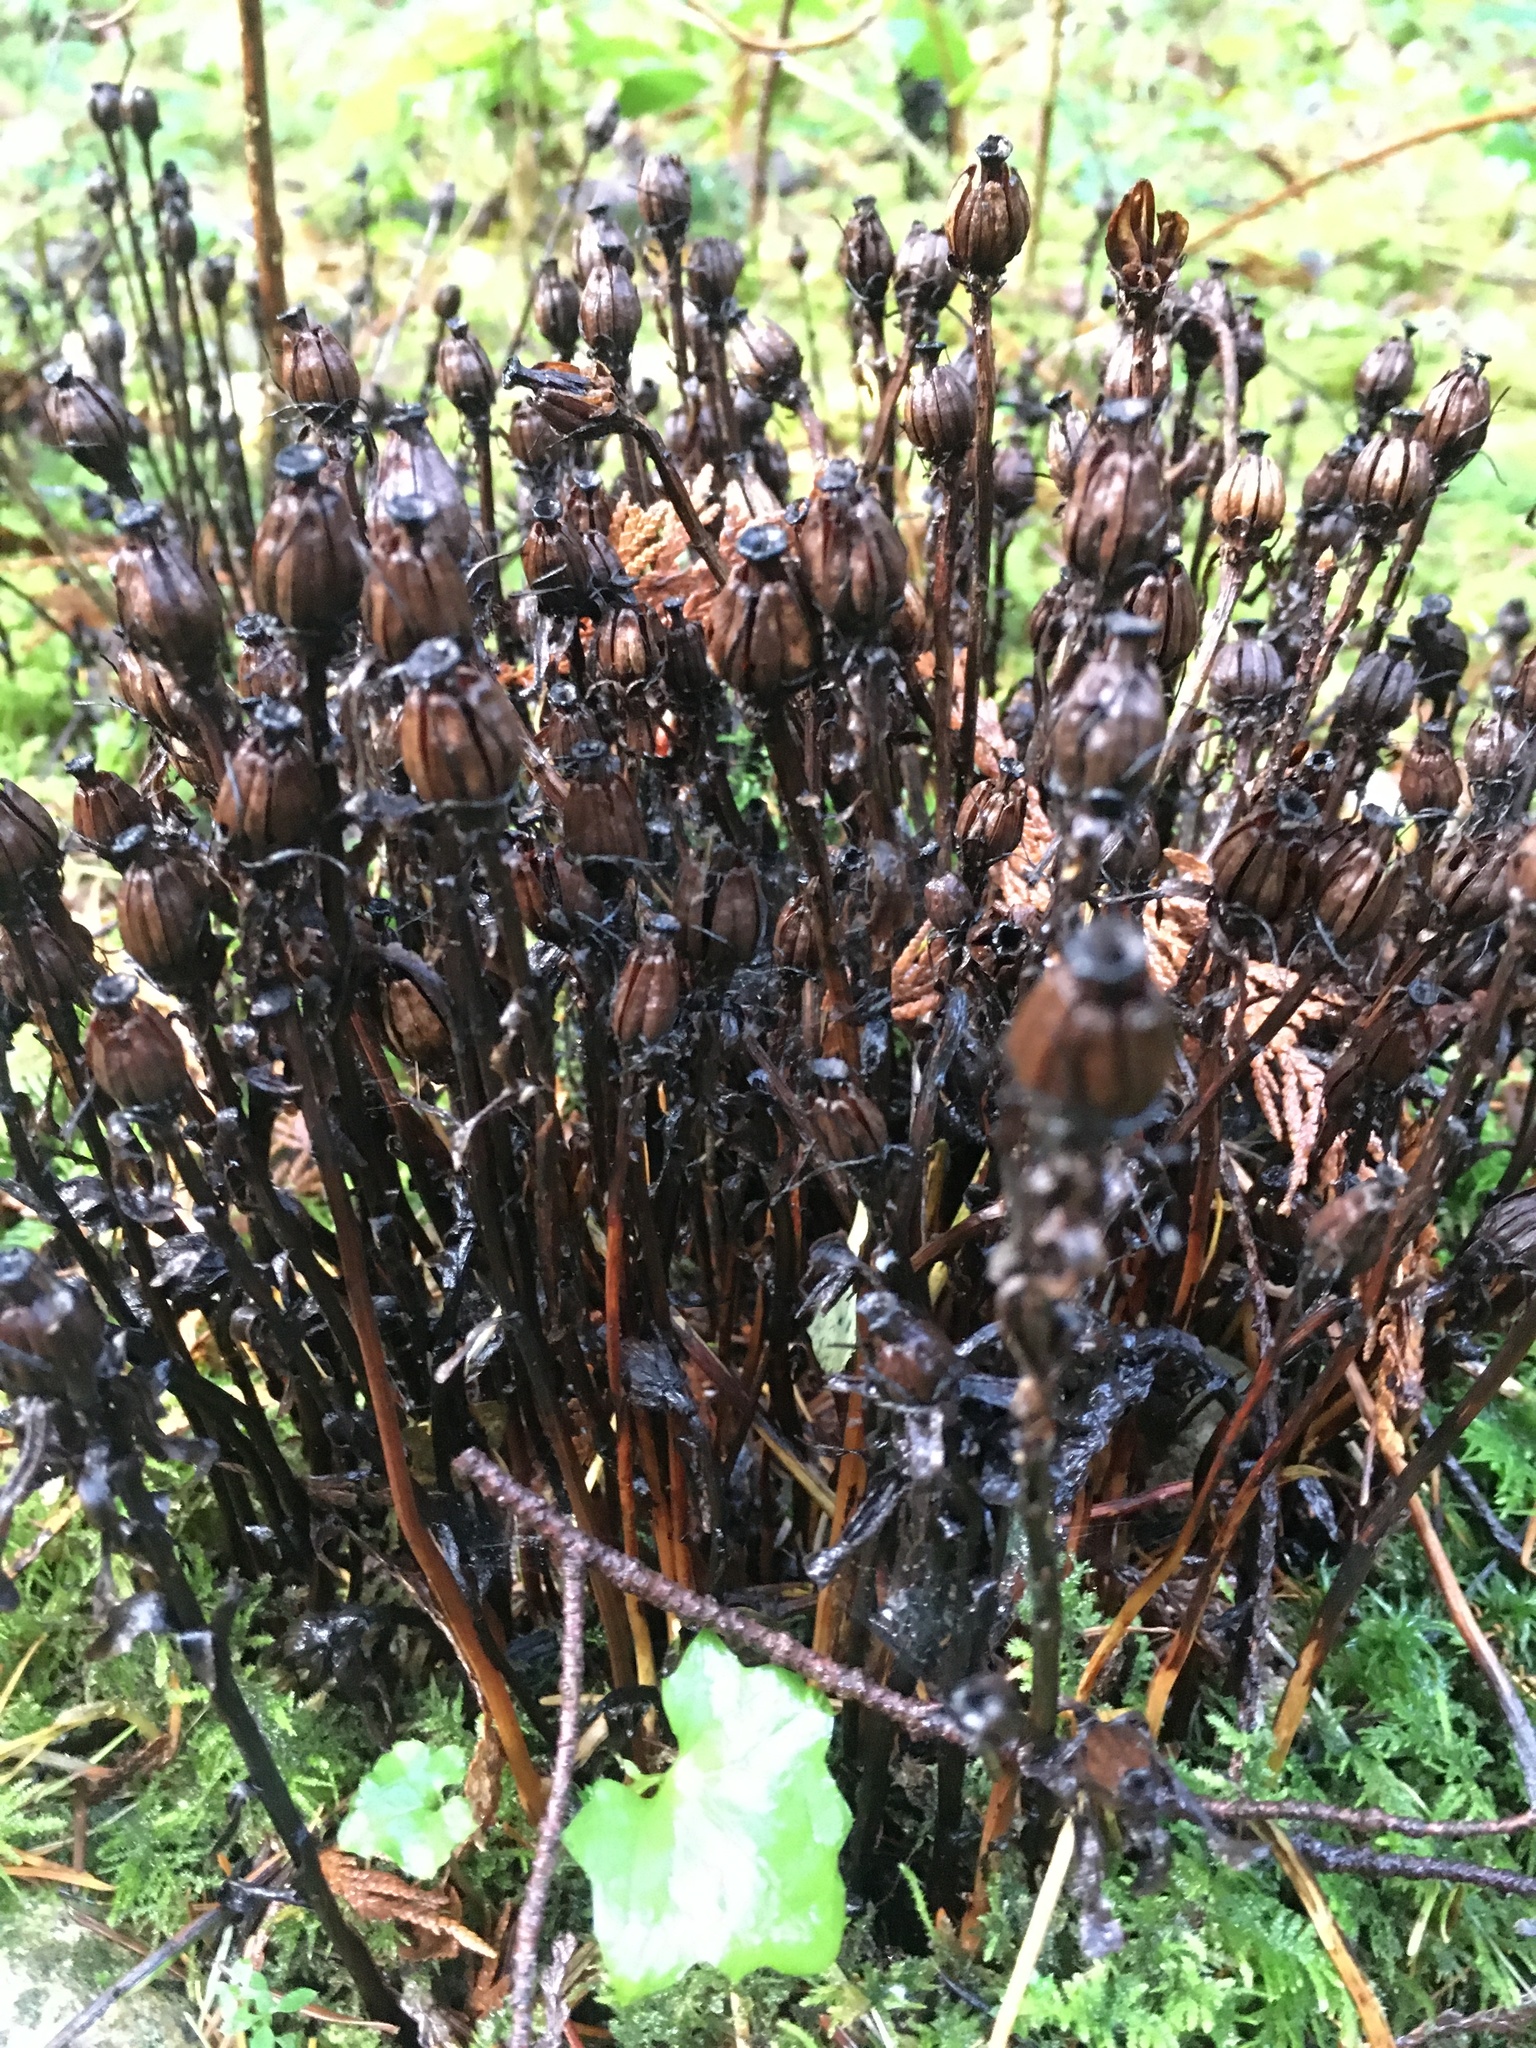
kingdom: Plantae
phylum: Tracheophyta
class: Magnoliopsida
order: Ericales
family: Ericaceae
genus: Monotropa
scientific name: Monotropa uniflora
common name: Convulsion root
